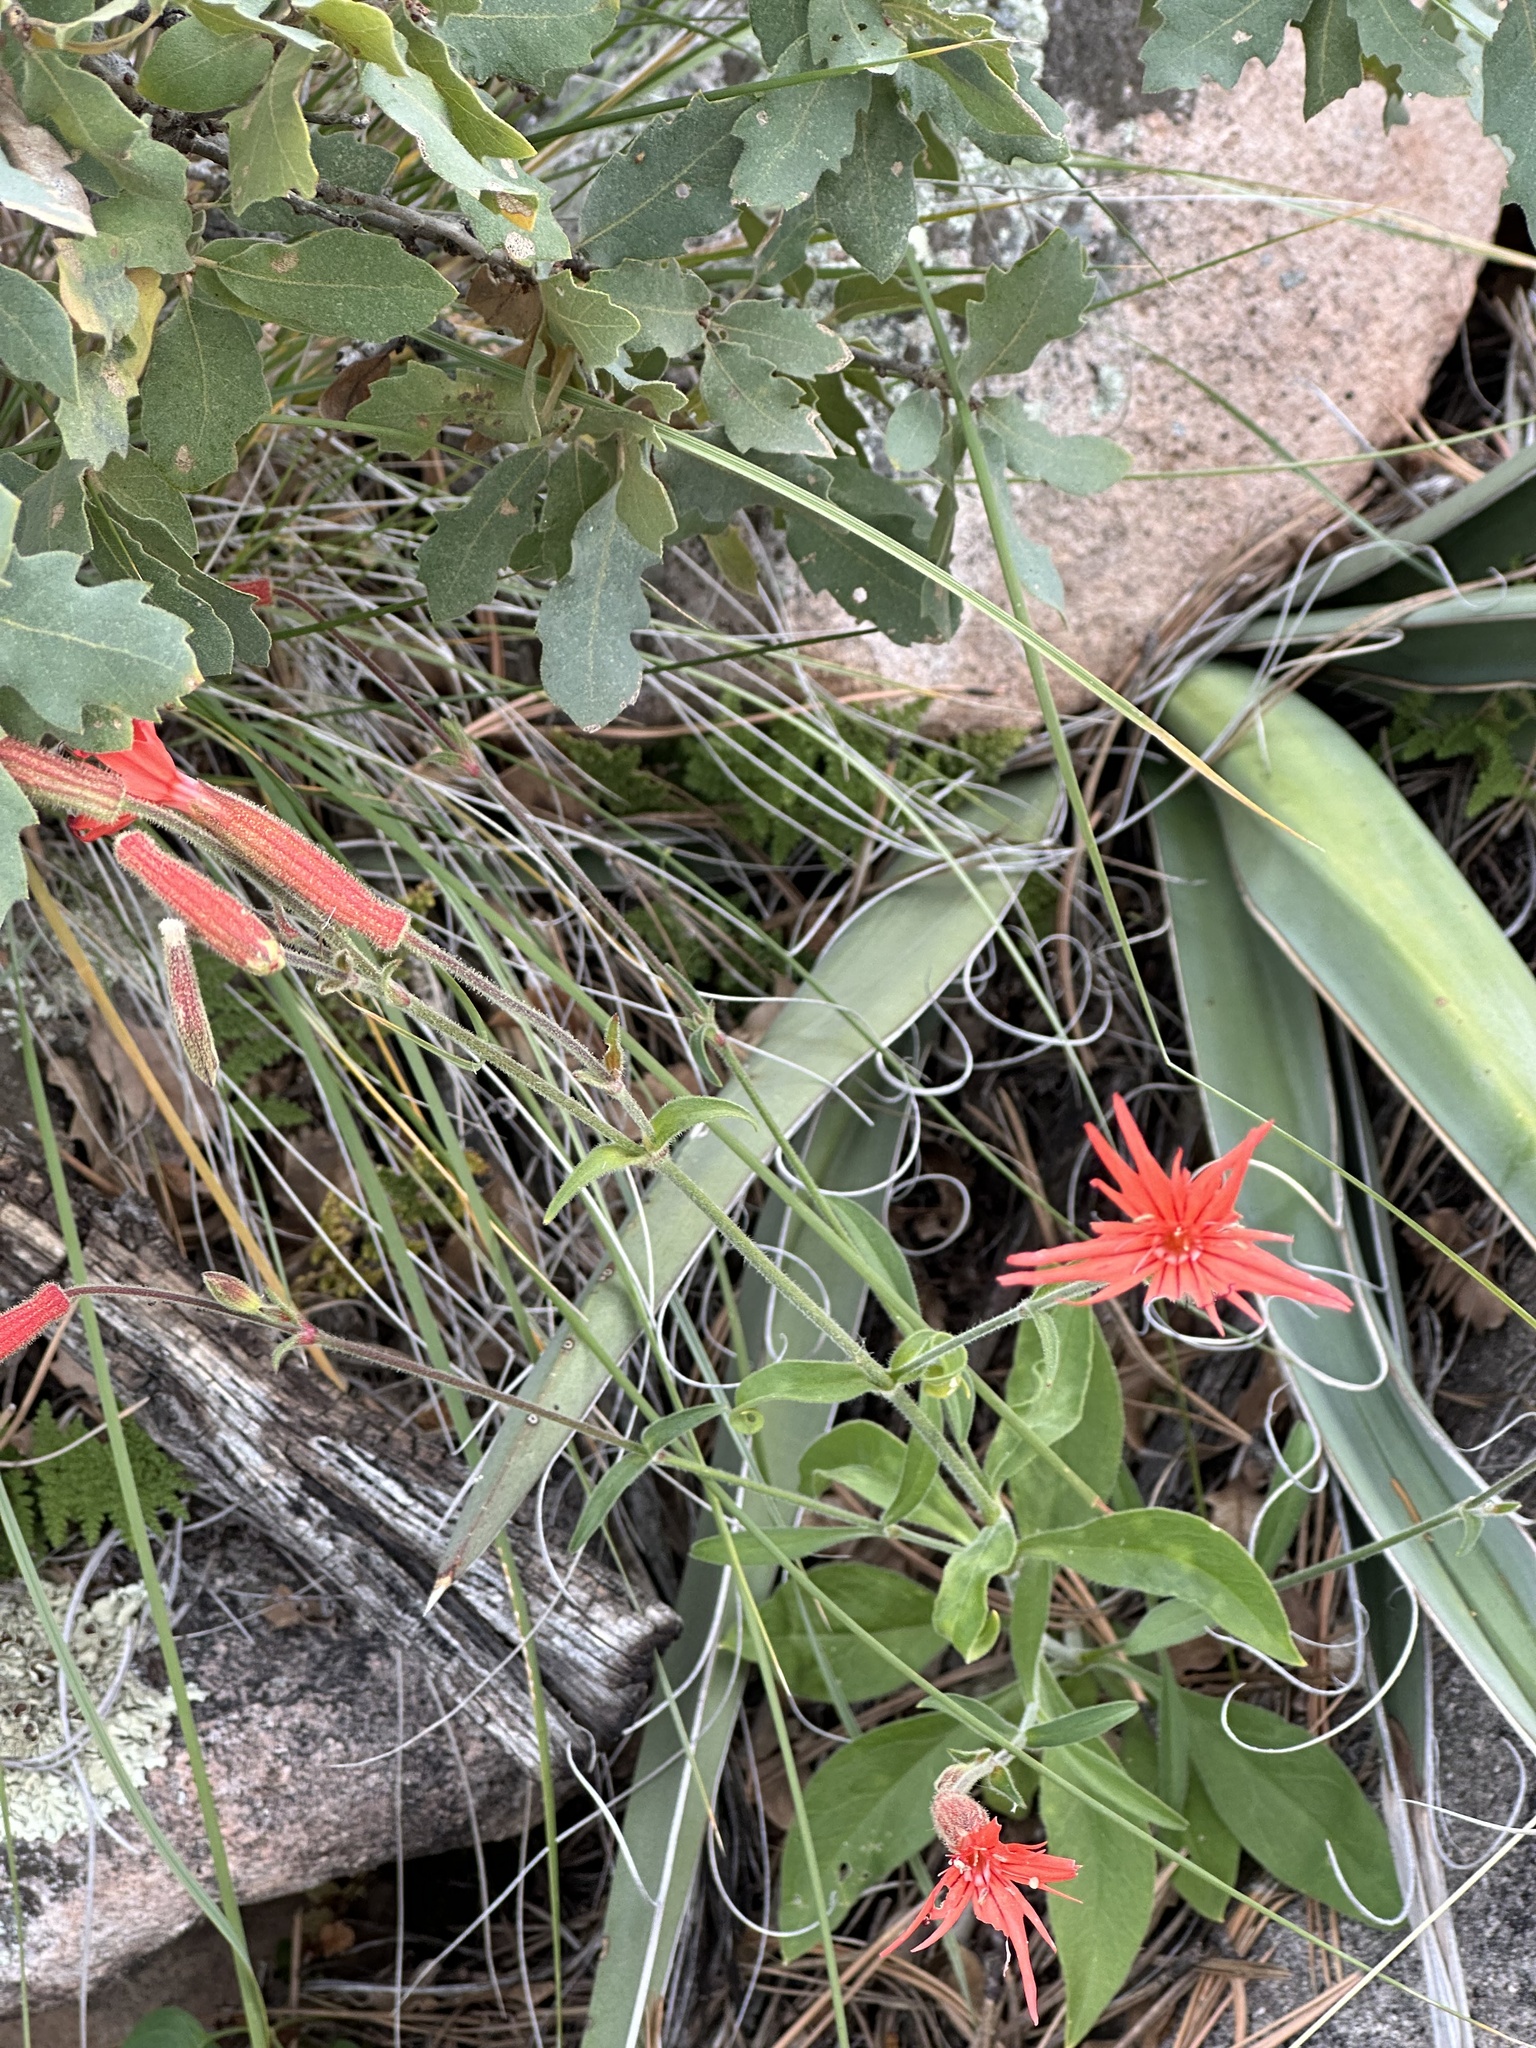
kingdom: Plantae
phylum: Tracheophyta
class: Magnoliopsida
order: Caryophyllales
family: Caryophyllaceae
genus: Silene
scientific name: Silene laciniata
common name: Indian-pink
